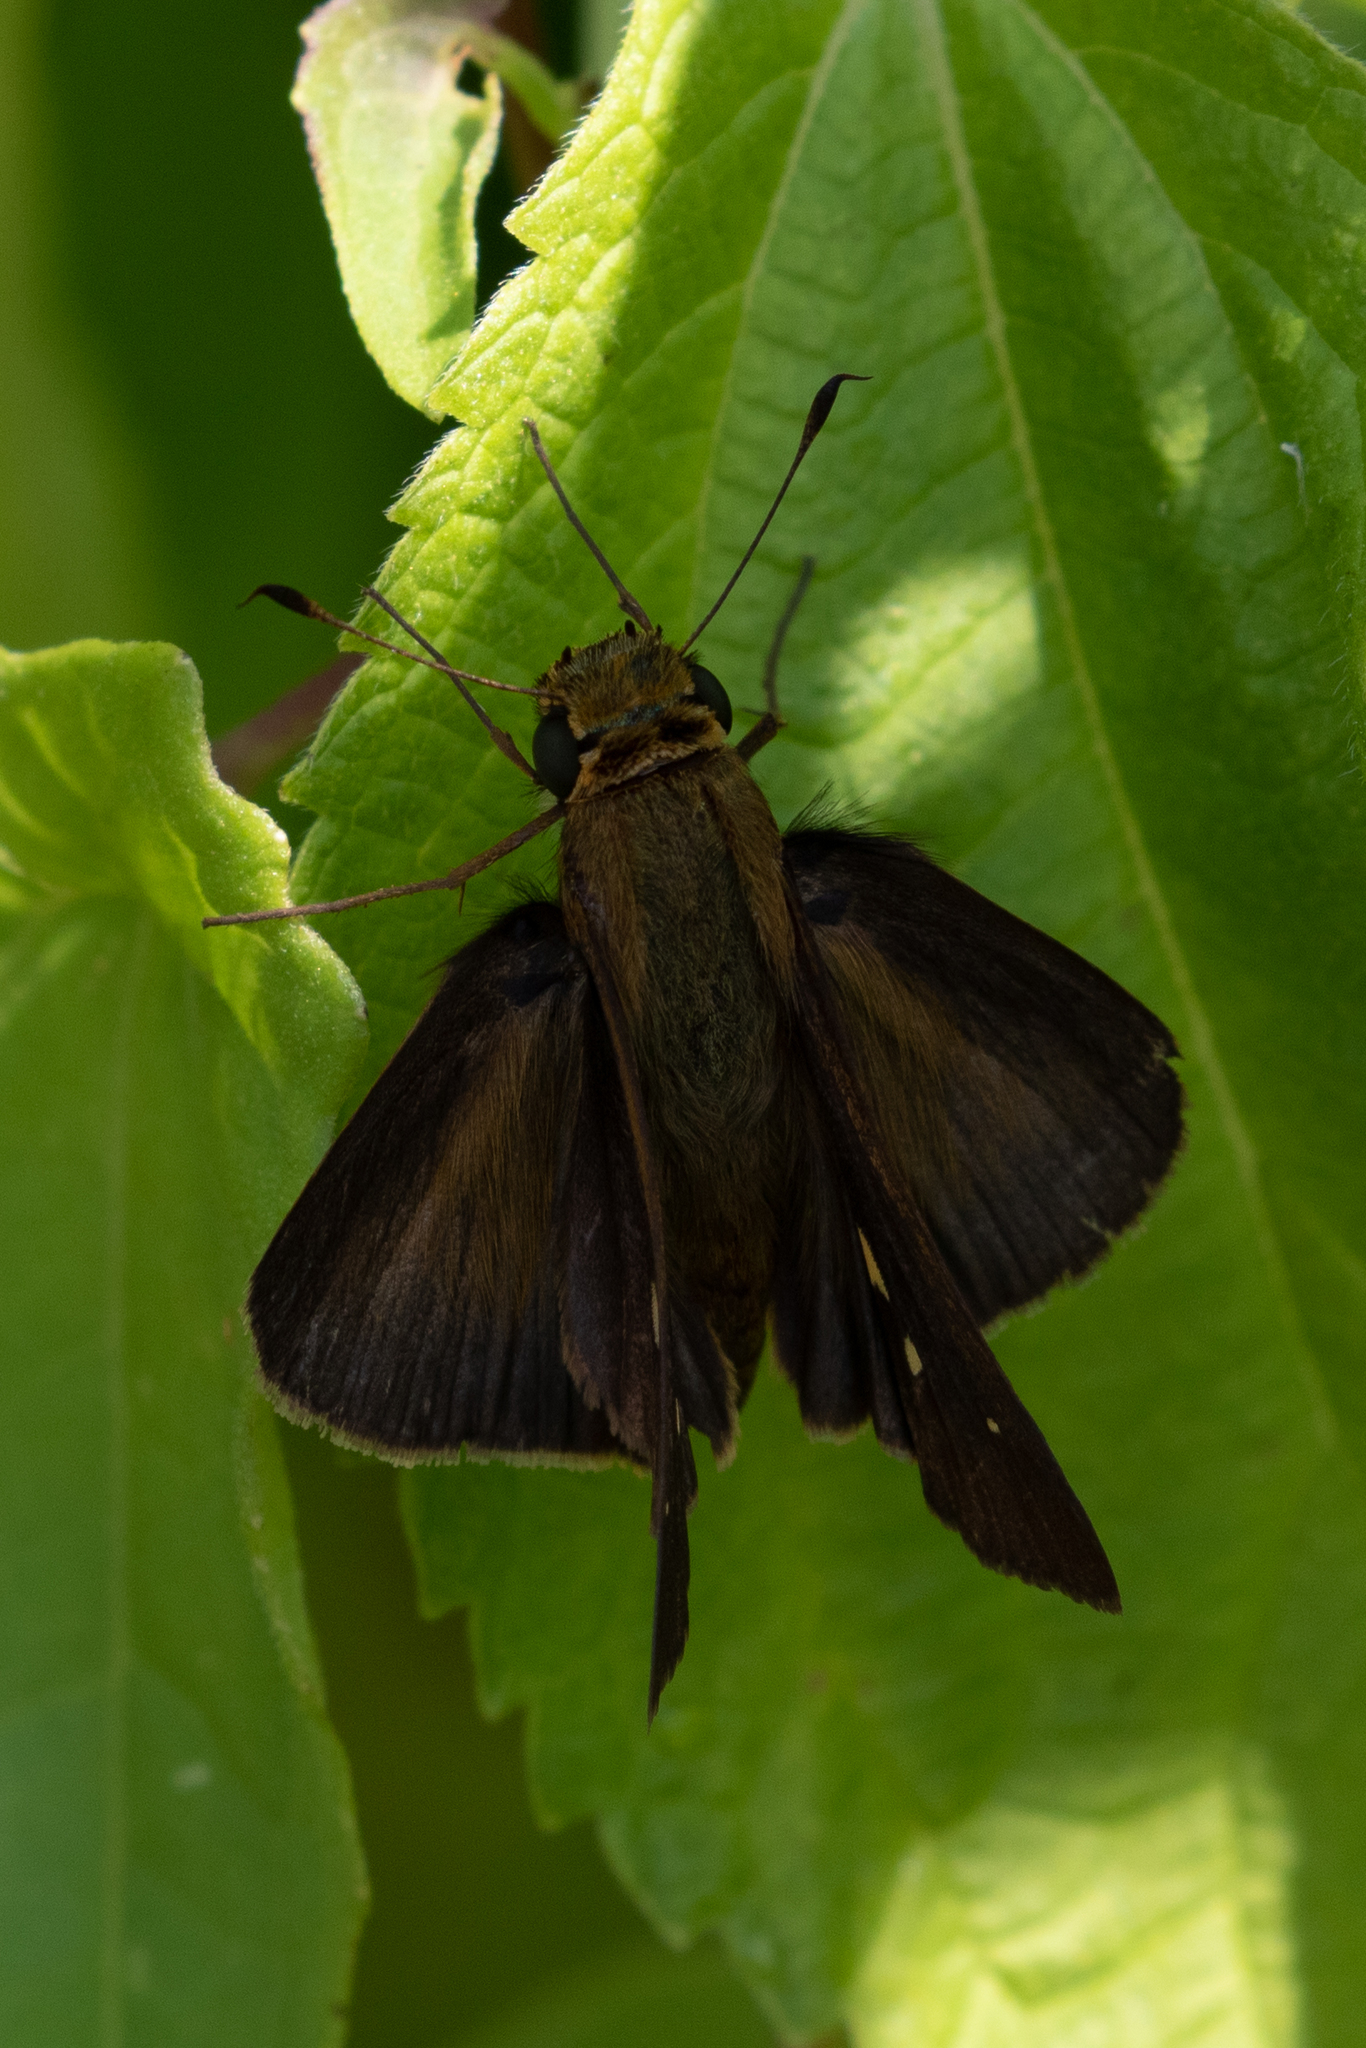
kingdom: Animalia
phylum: Arthropoda
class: Insecta
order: Lepidoptera
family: Hesperiidae
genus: Panoquina
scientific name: Panoquina ocola
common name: Ocola skipper
